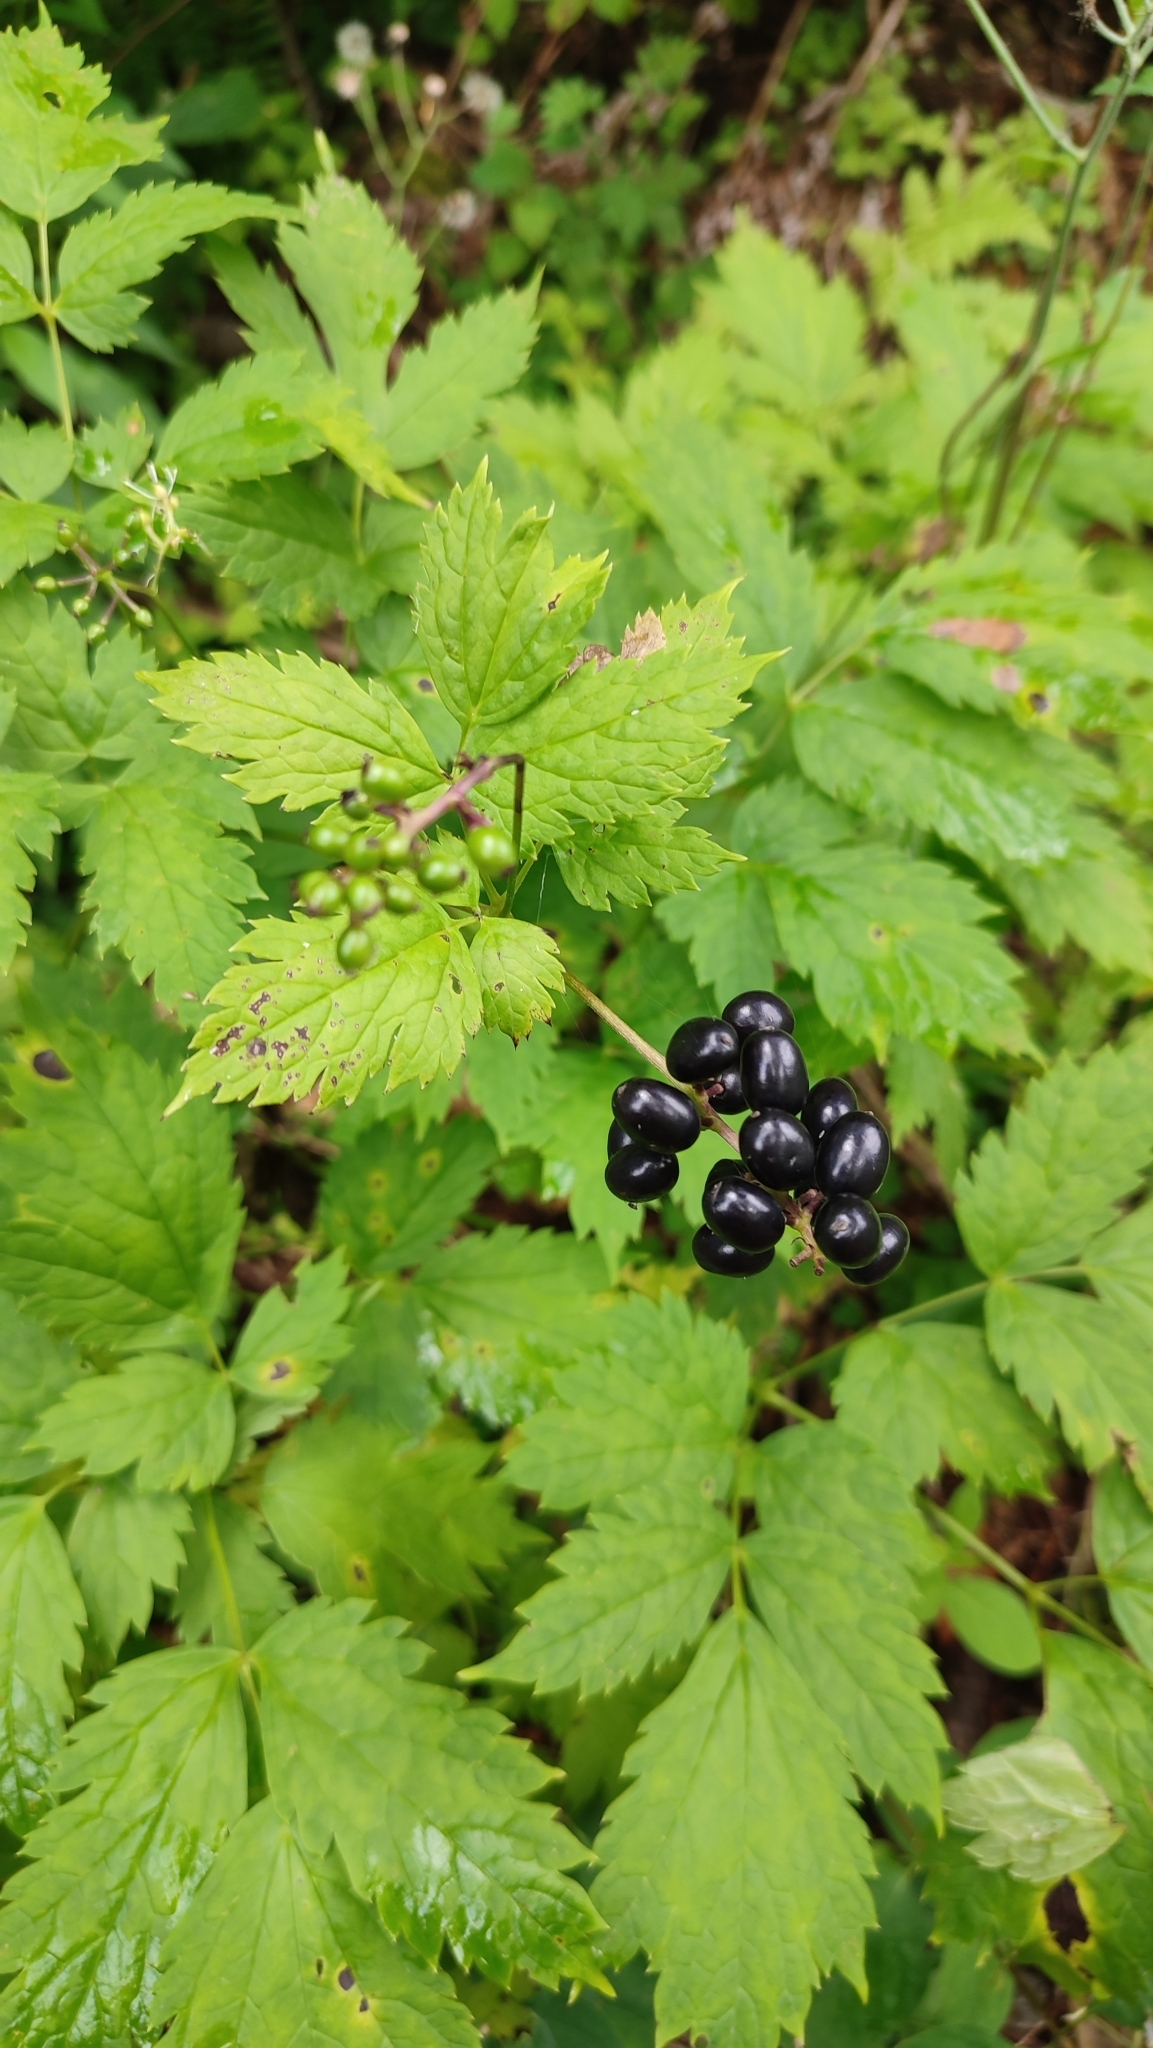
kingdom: Plantae
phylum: Tracheophyta
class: Magnoliopsida
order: Ranunculales
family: Ranunculaceae
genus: Actaea
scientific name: Actaea spicata
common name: Baneberry
